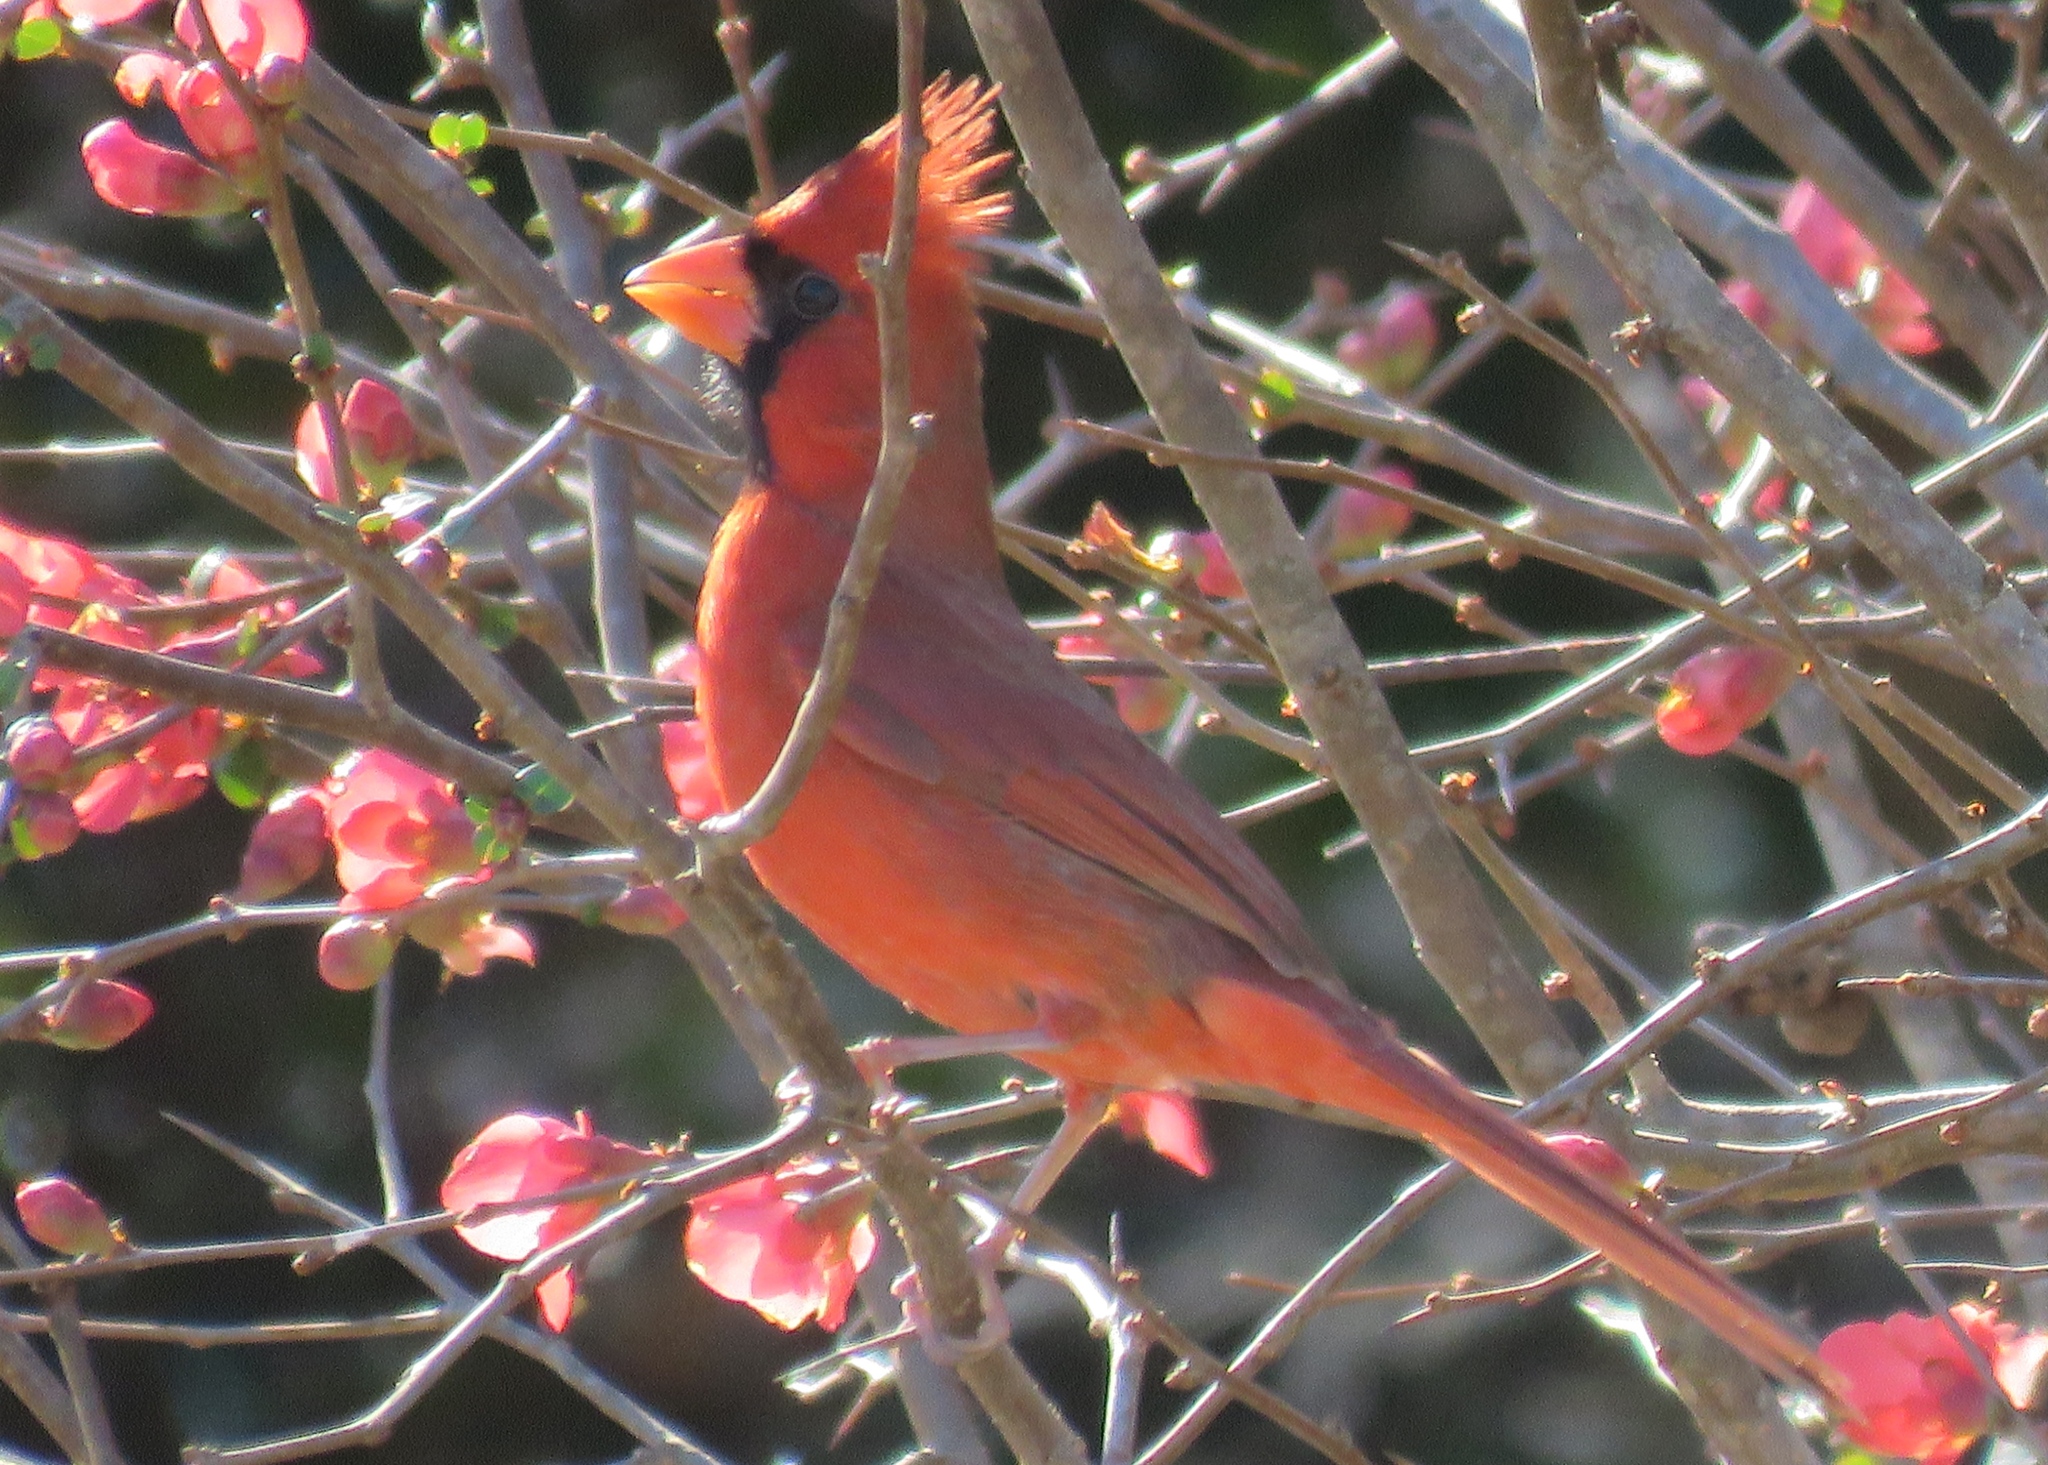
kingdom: Animalia
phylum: Chordata
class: Aves
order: Passeriformes
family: Cardinalidae
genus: Cardinalis
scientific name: Cardinalis cardinalis
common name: Northern cardinal
